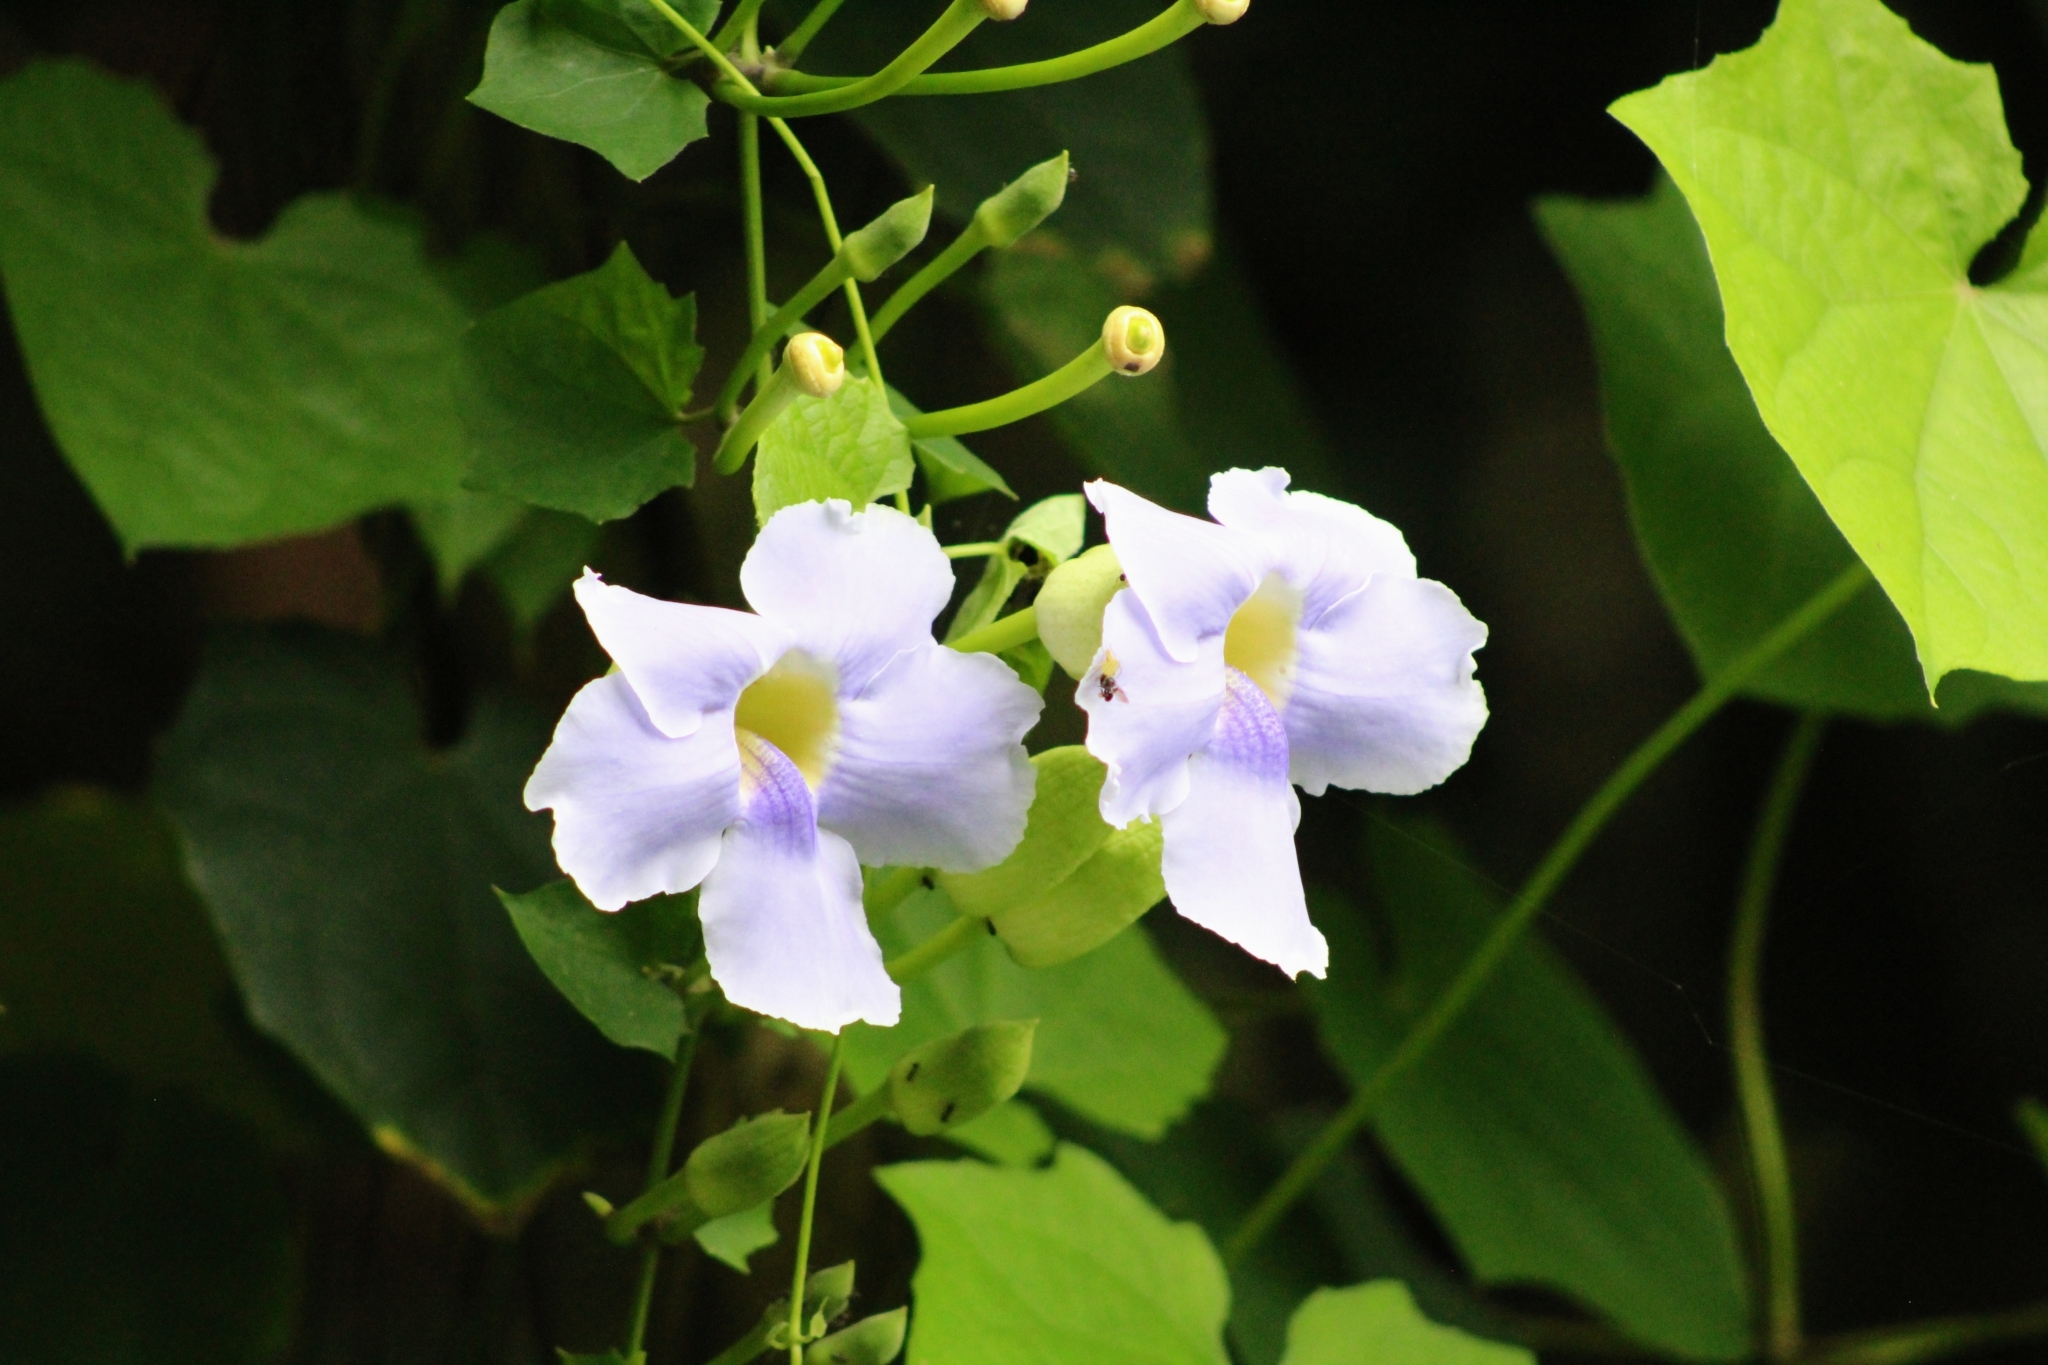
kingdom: Plantae
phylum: Tracheophyta
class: Magnoliopsida
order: Lamiales
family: Acanthaceae
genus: Thunbergia
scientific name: Thunbergia grandiflora
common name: Bengal trumpet
